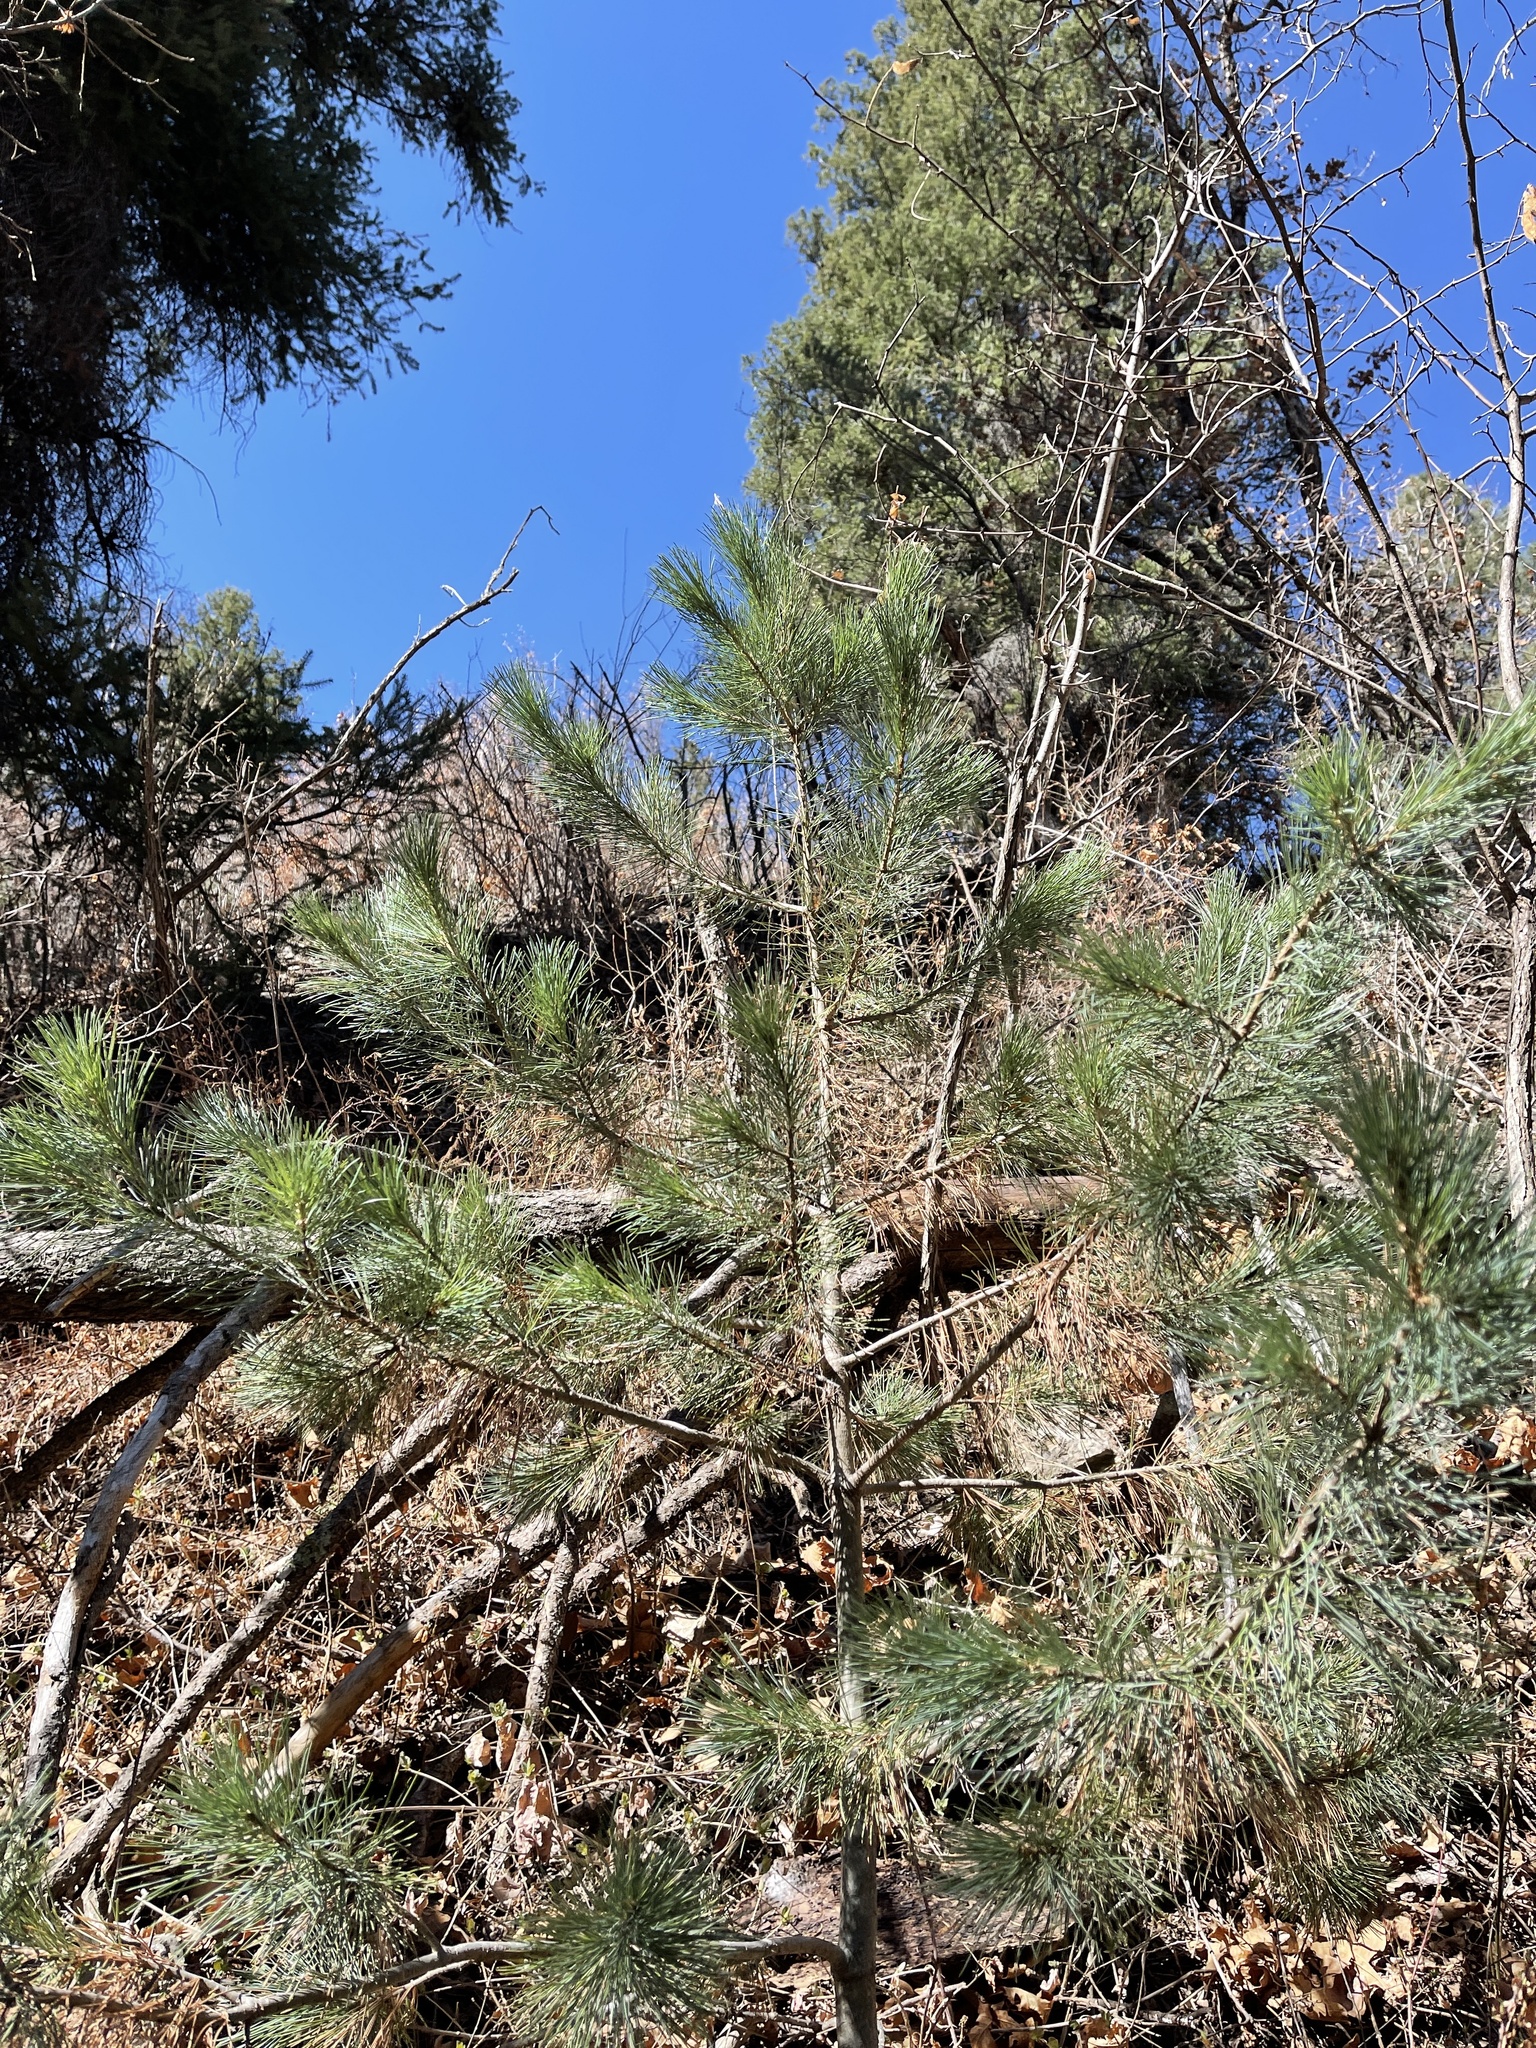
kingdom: Plantae
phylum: Tracheophyta
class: Pinopsida
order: Pinales
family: Pinaceae
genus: Pinus
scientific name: Pinus strobiformis
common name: Southwestern white pine
